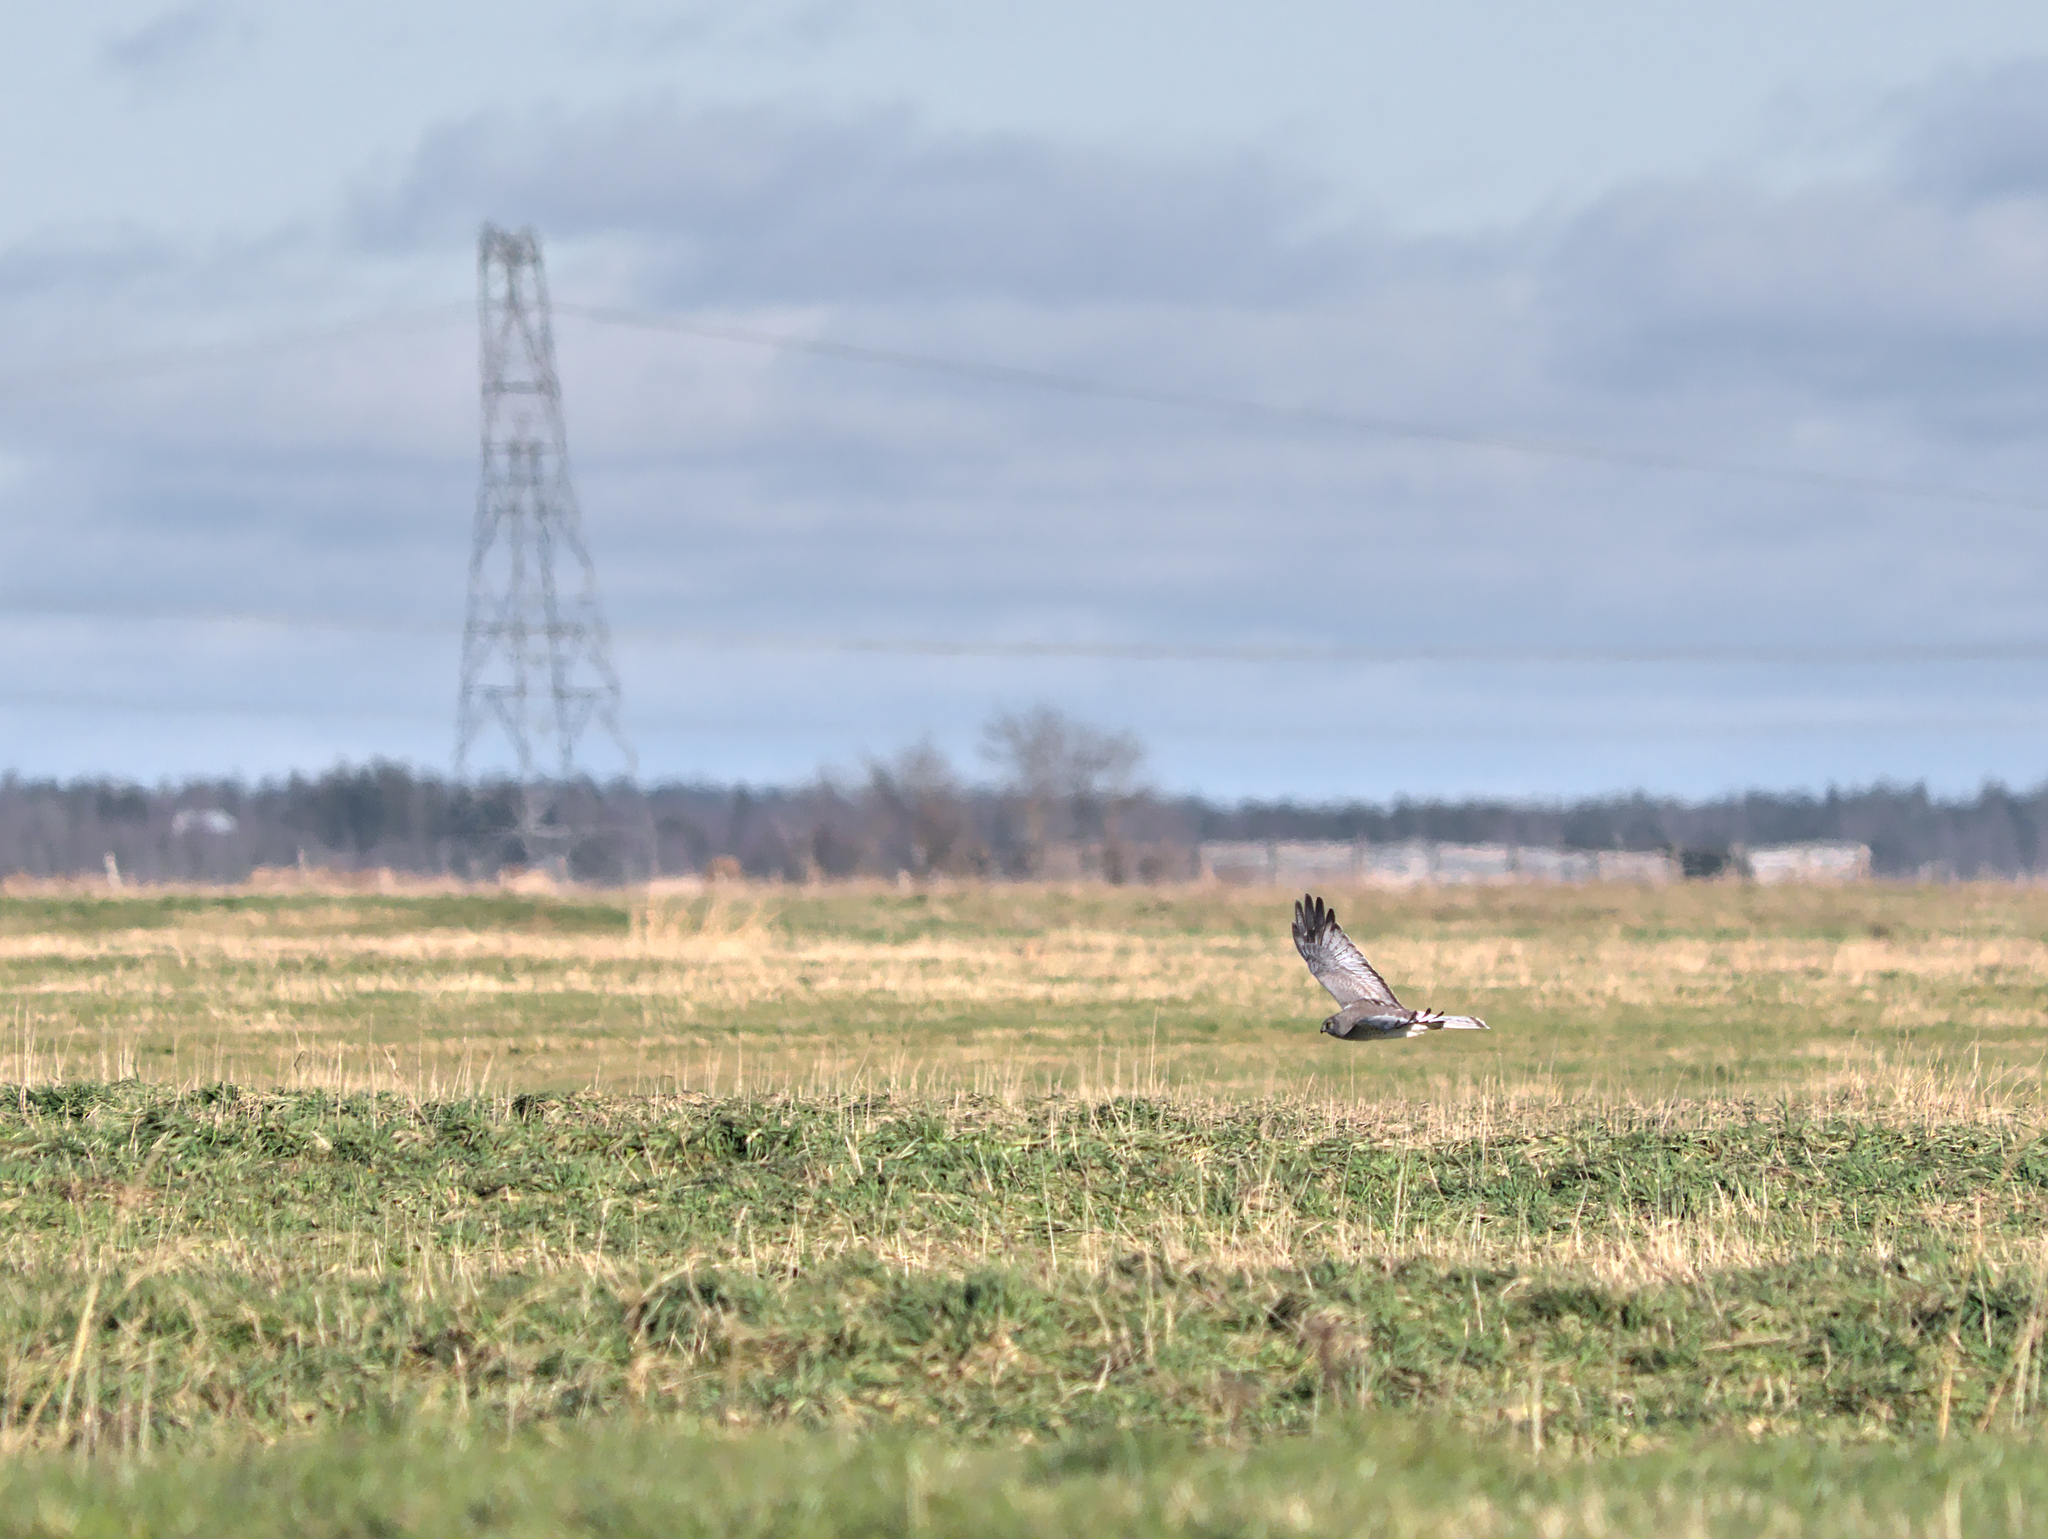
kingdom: Animalia
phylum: Chordata
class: Aves
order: Accipitriformes
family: Accipitridae
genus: Circus
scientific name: Circus cyaneus
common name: Hen harrier
